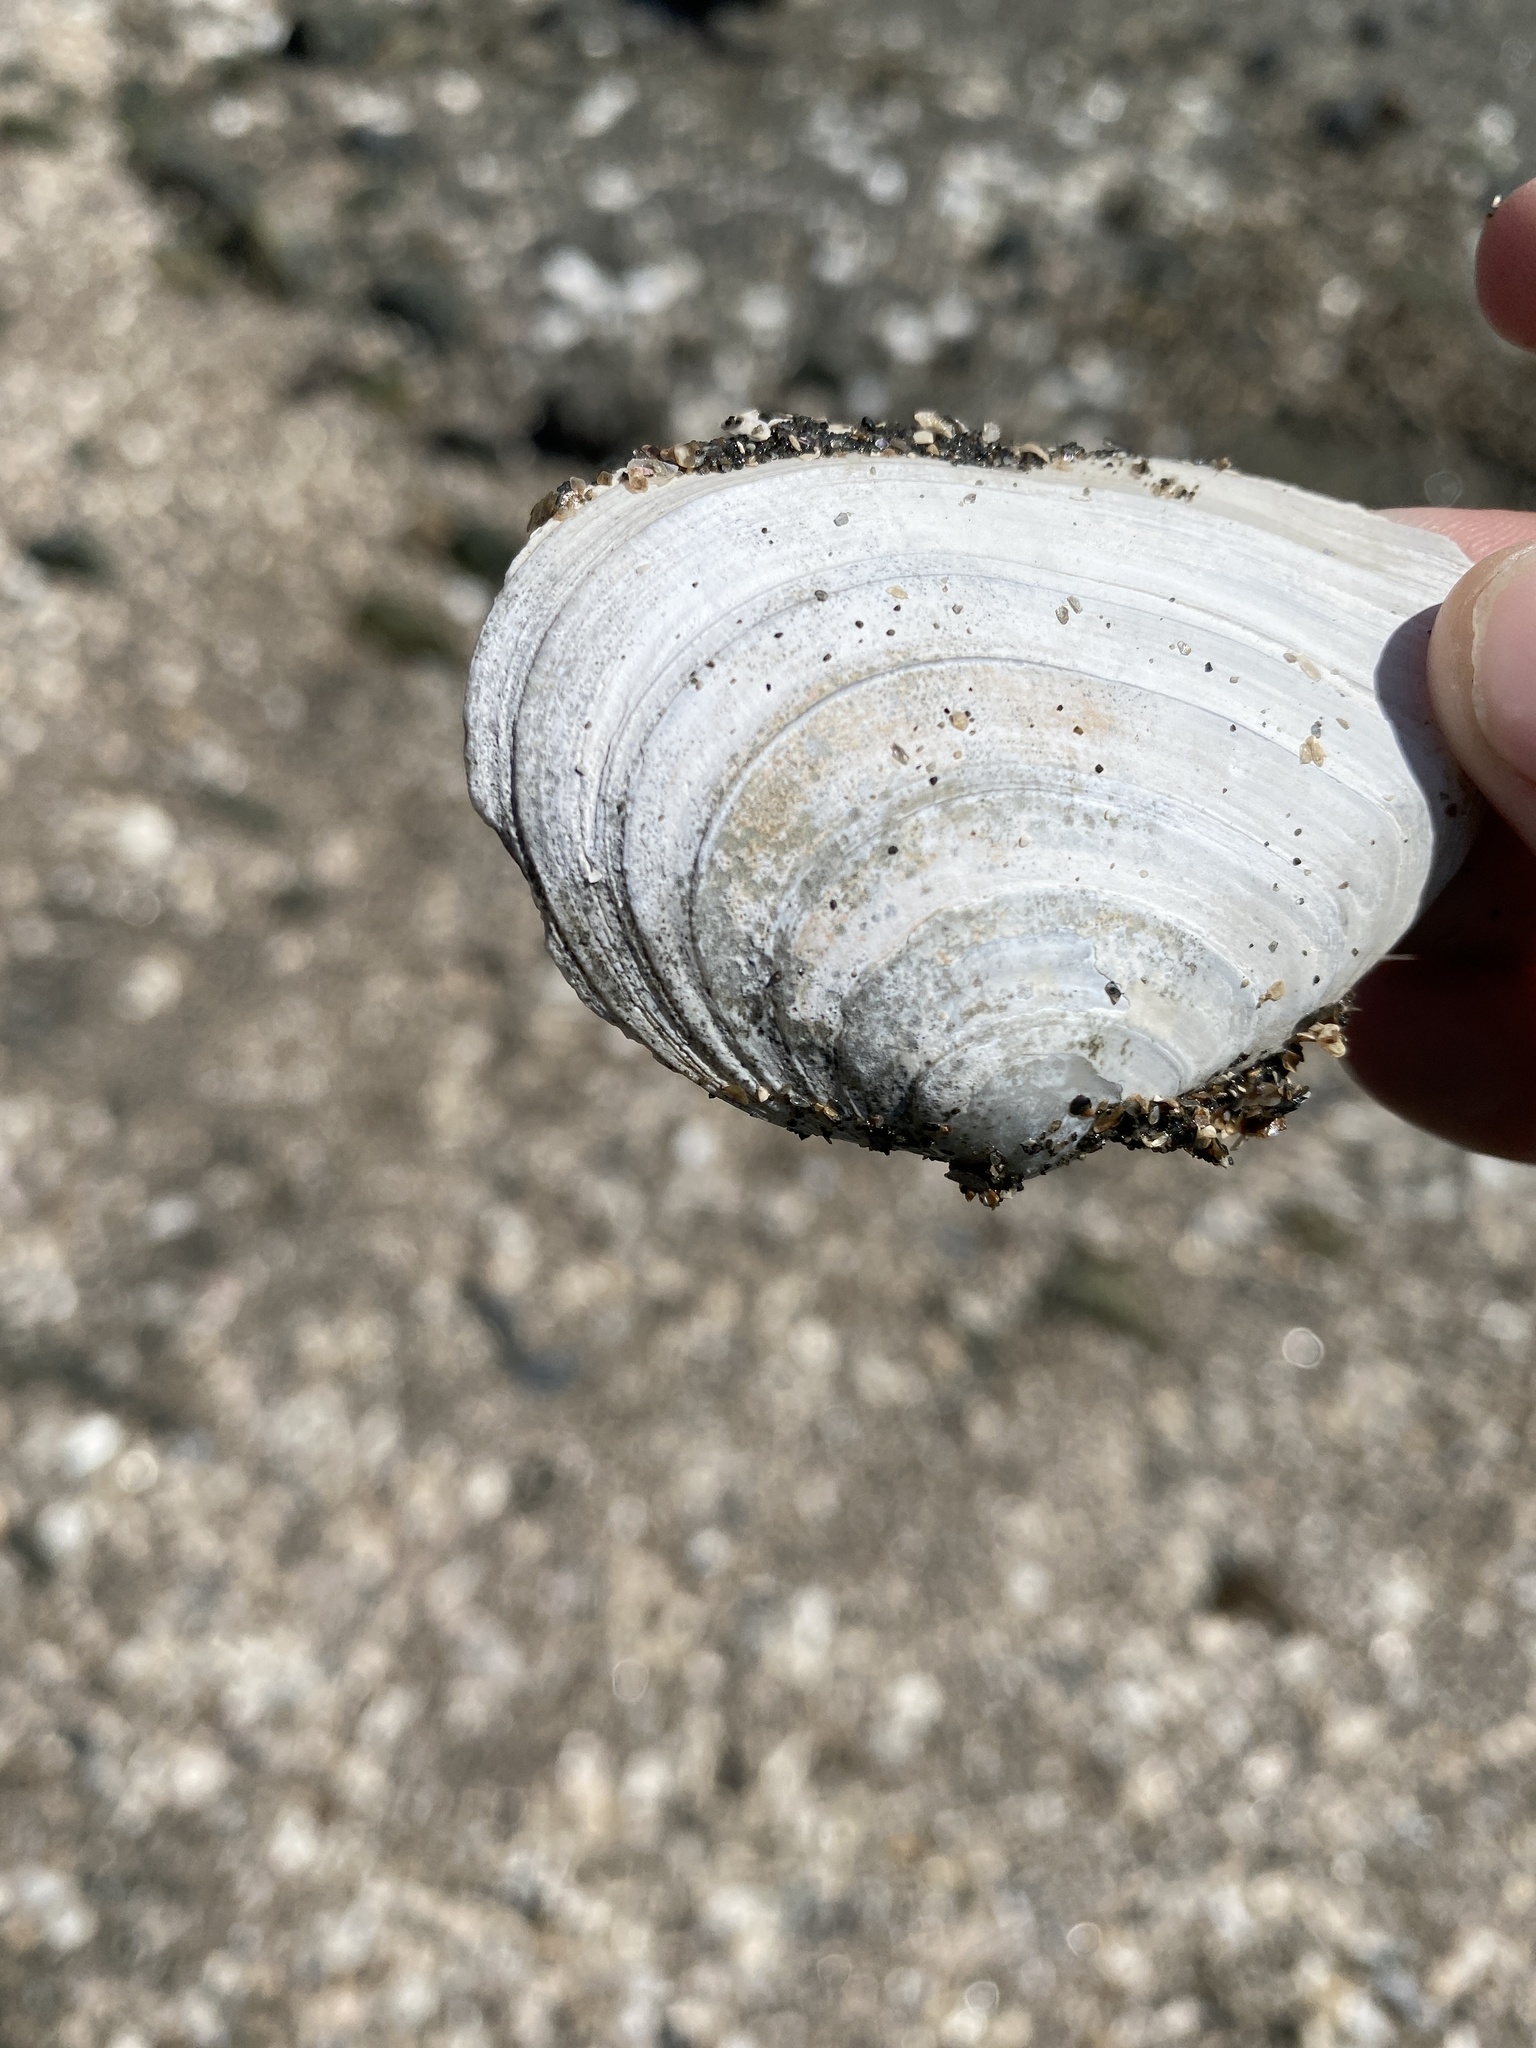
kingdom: Animalia
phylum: Mollusca
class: Bivalvia
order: Cardiida
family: Tellinidae
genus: Macoma
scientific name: Macoma nasuta
